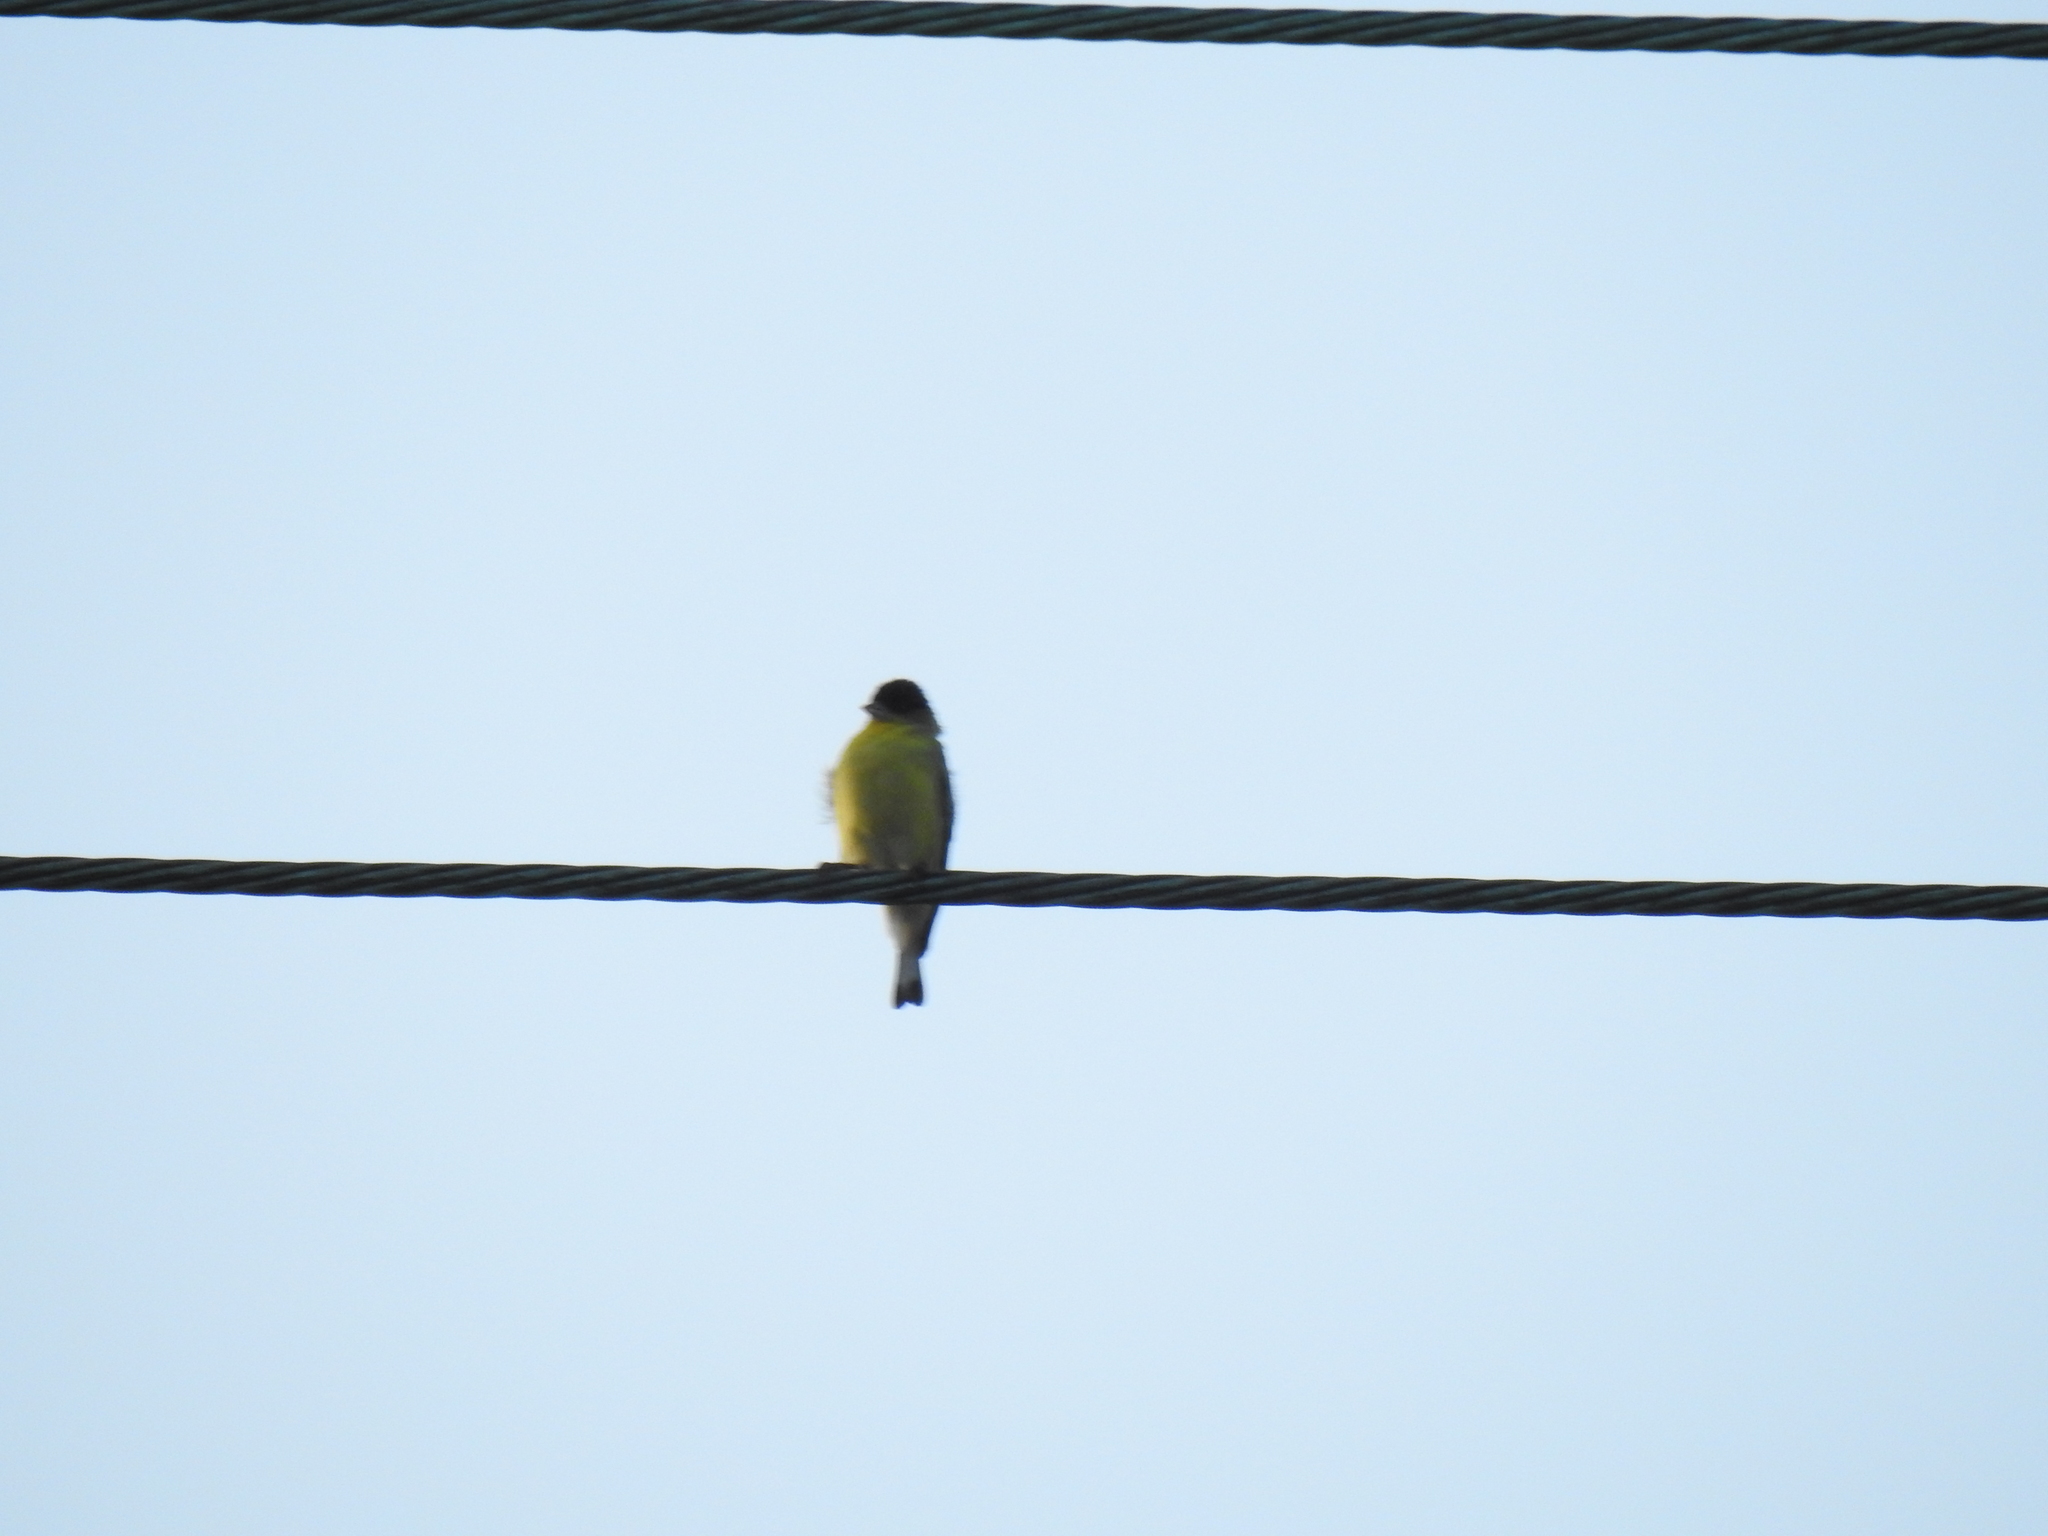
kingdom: Animalia
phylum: Chordata
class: Aves
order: Passeriformes
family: Fringillidae
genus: Spinus
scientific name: Spinus psaltria
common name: Lesser goldfinch
